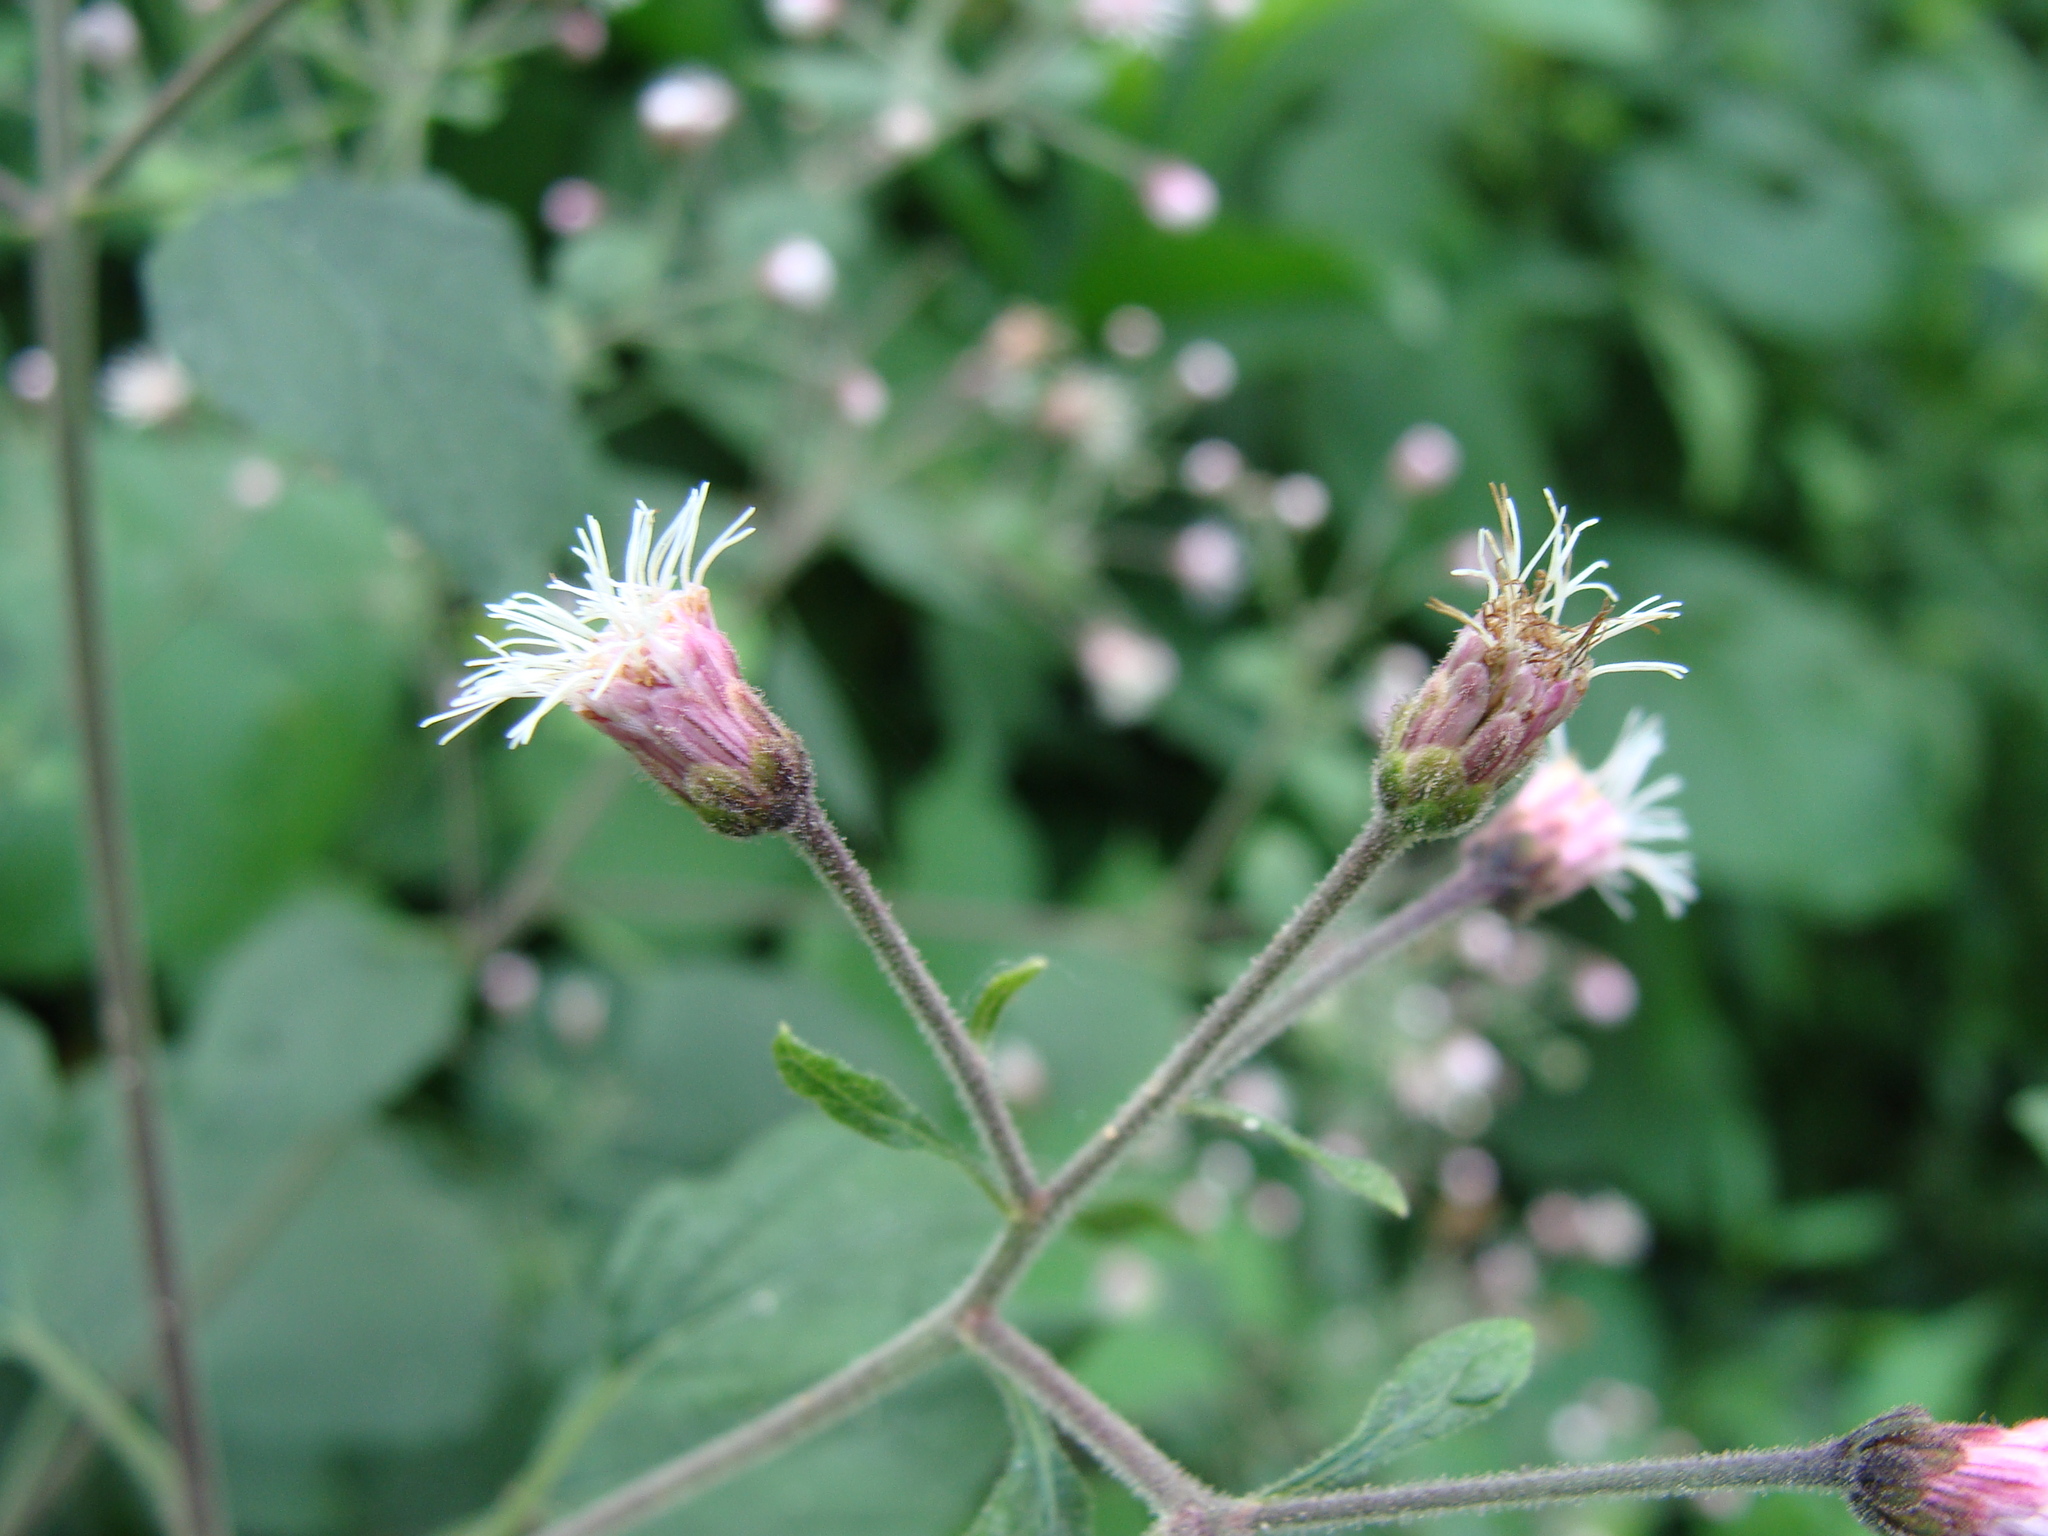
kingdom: Plantae
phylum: Tracheophyta
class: Magnoliopsida
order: Asterales
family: Asteraceae
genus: Peteravenia
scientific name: Peteravenia schultzii
